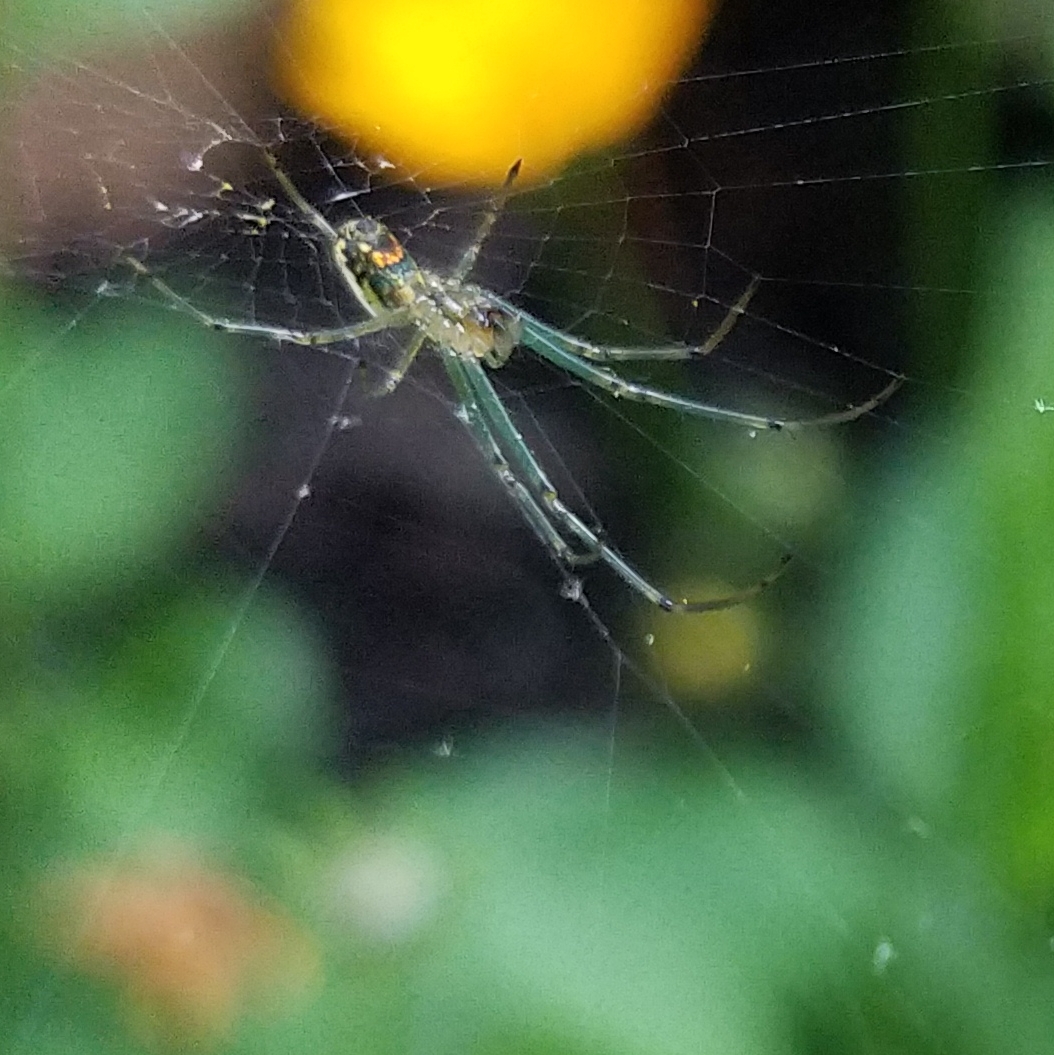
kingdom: Animalia
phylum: Arthropoda
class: Arachnida
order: Araneae
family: Tetragnathidae
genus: Leucauge
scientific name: Leucauge venusta
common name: Longjawed orb weavers
